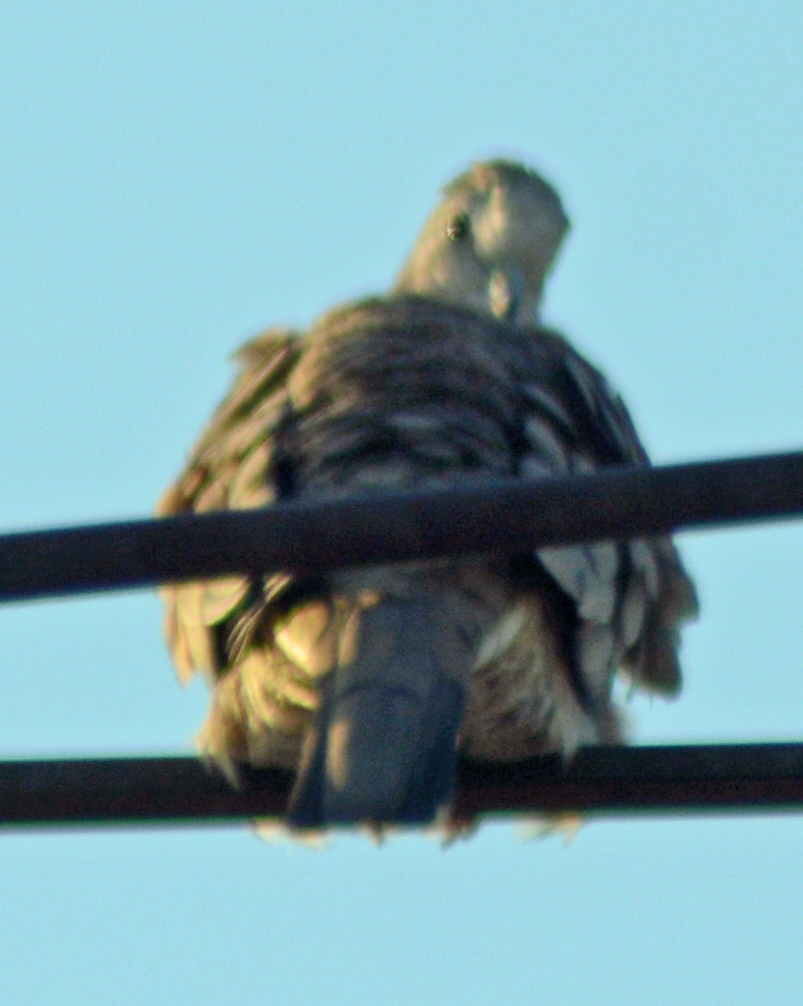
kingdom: Animalia
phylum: Chordata
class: Aves
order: Columbiformes
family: Columbidae
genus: Columbina
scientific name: Columbina inca
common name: Inca dove
